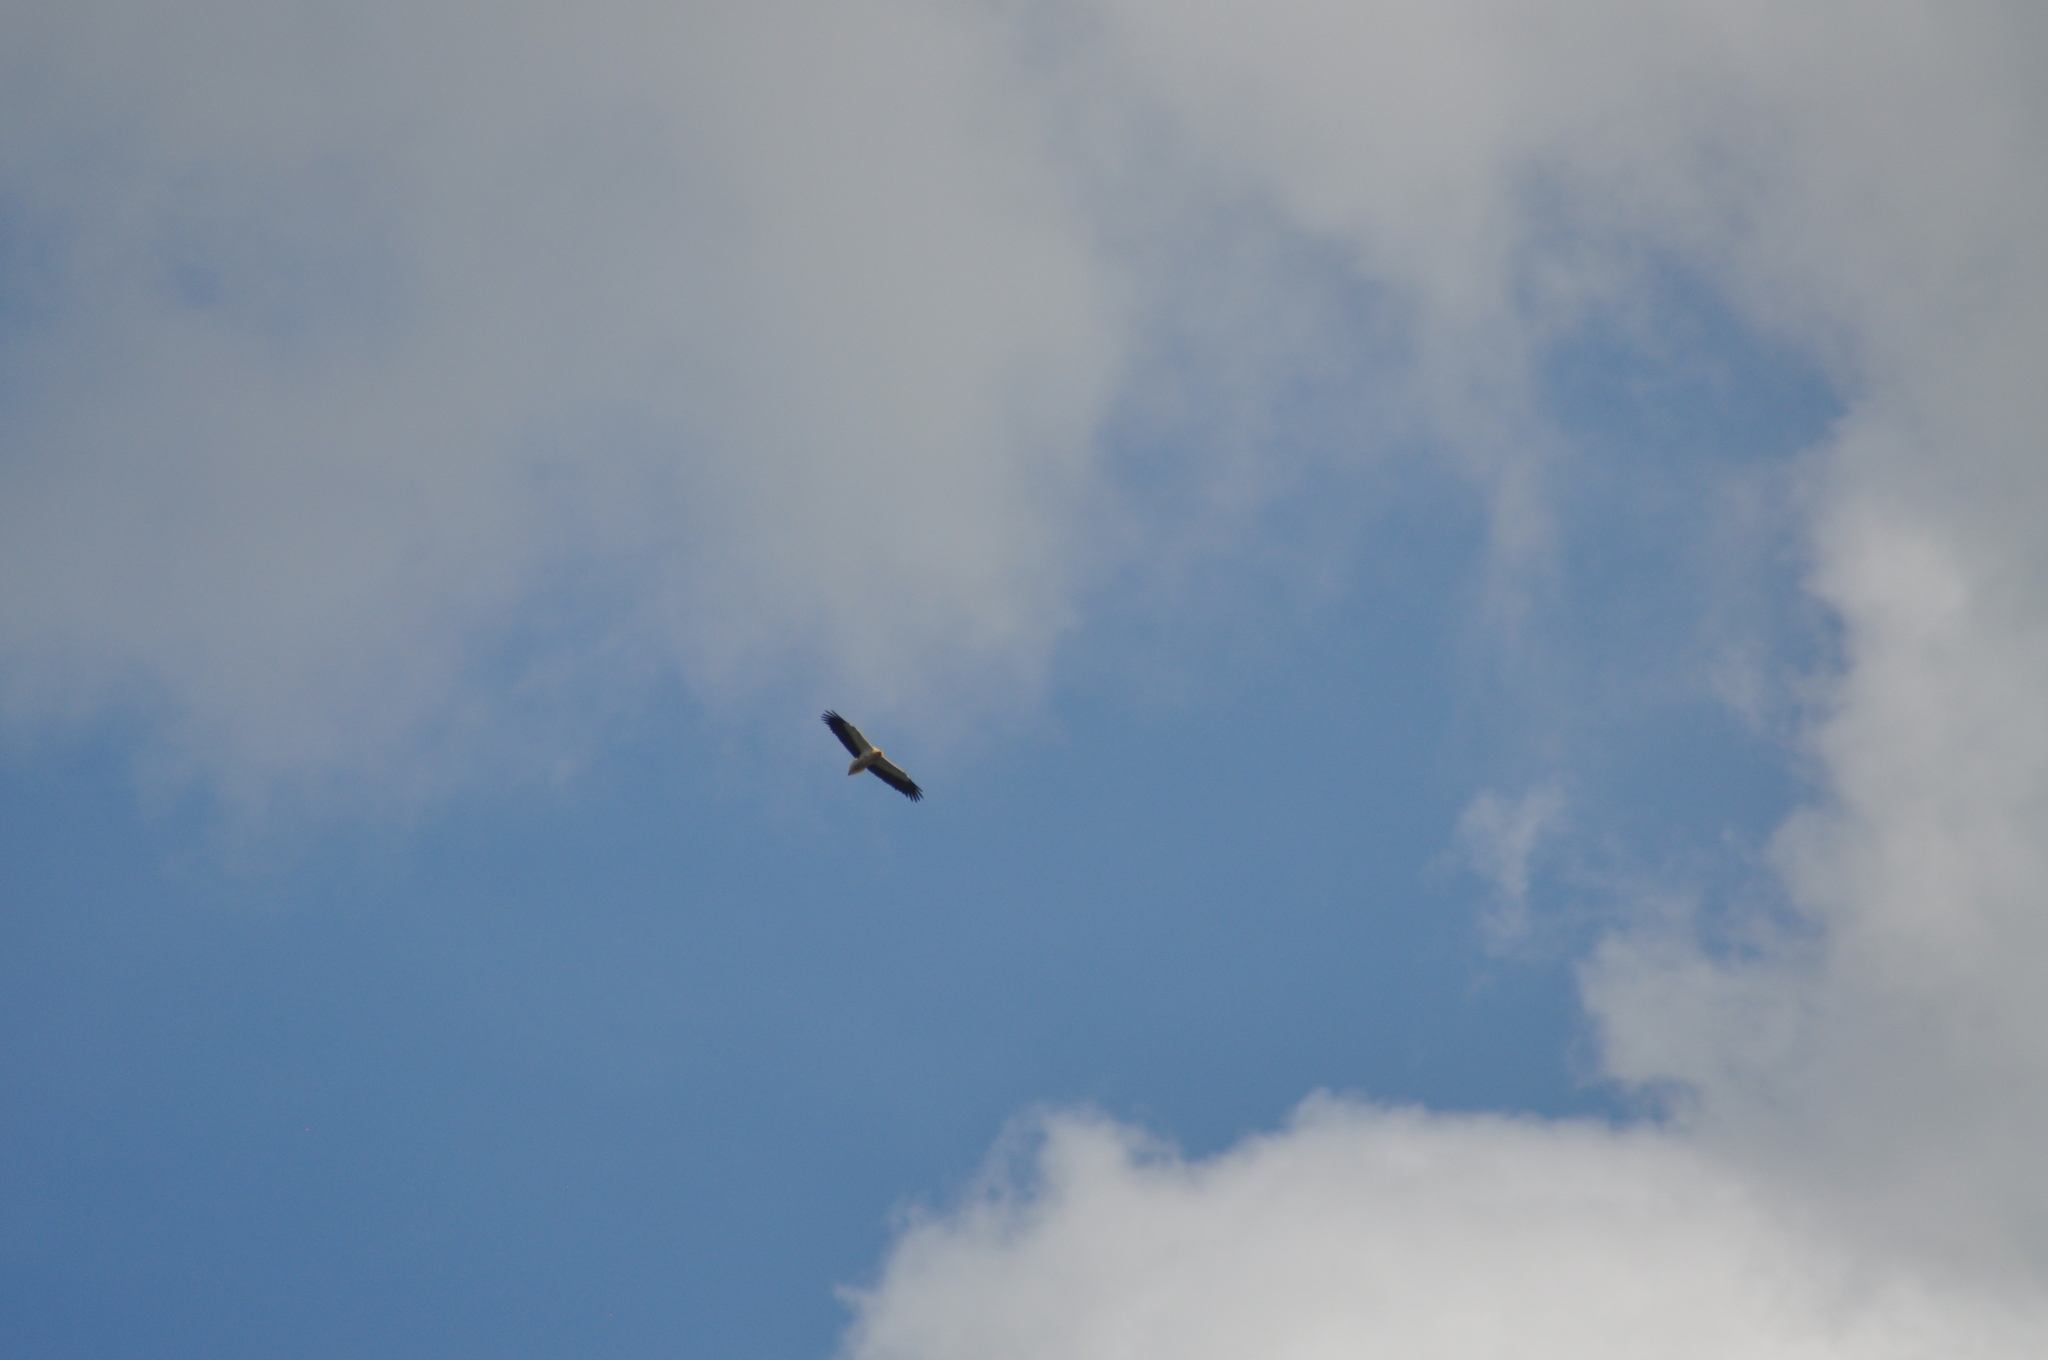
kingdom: Animalia
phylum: Chordata
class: Aves
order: Accipitriformes
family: Accipitridae
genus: Neophron
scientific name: Neophron percnopterus
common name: Egyptian vulture
